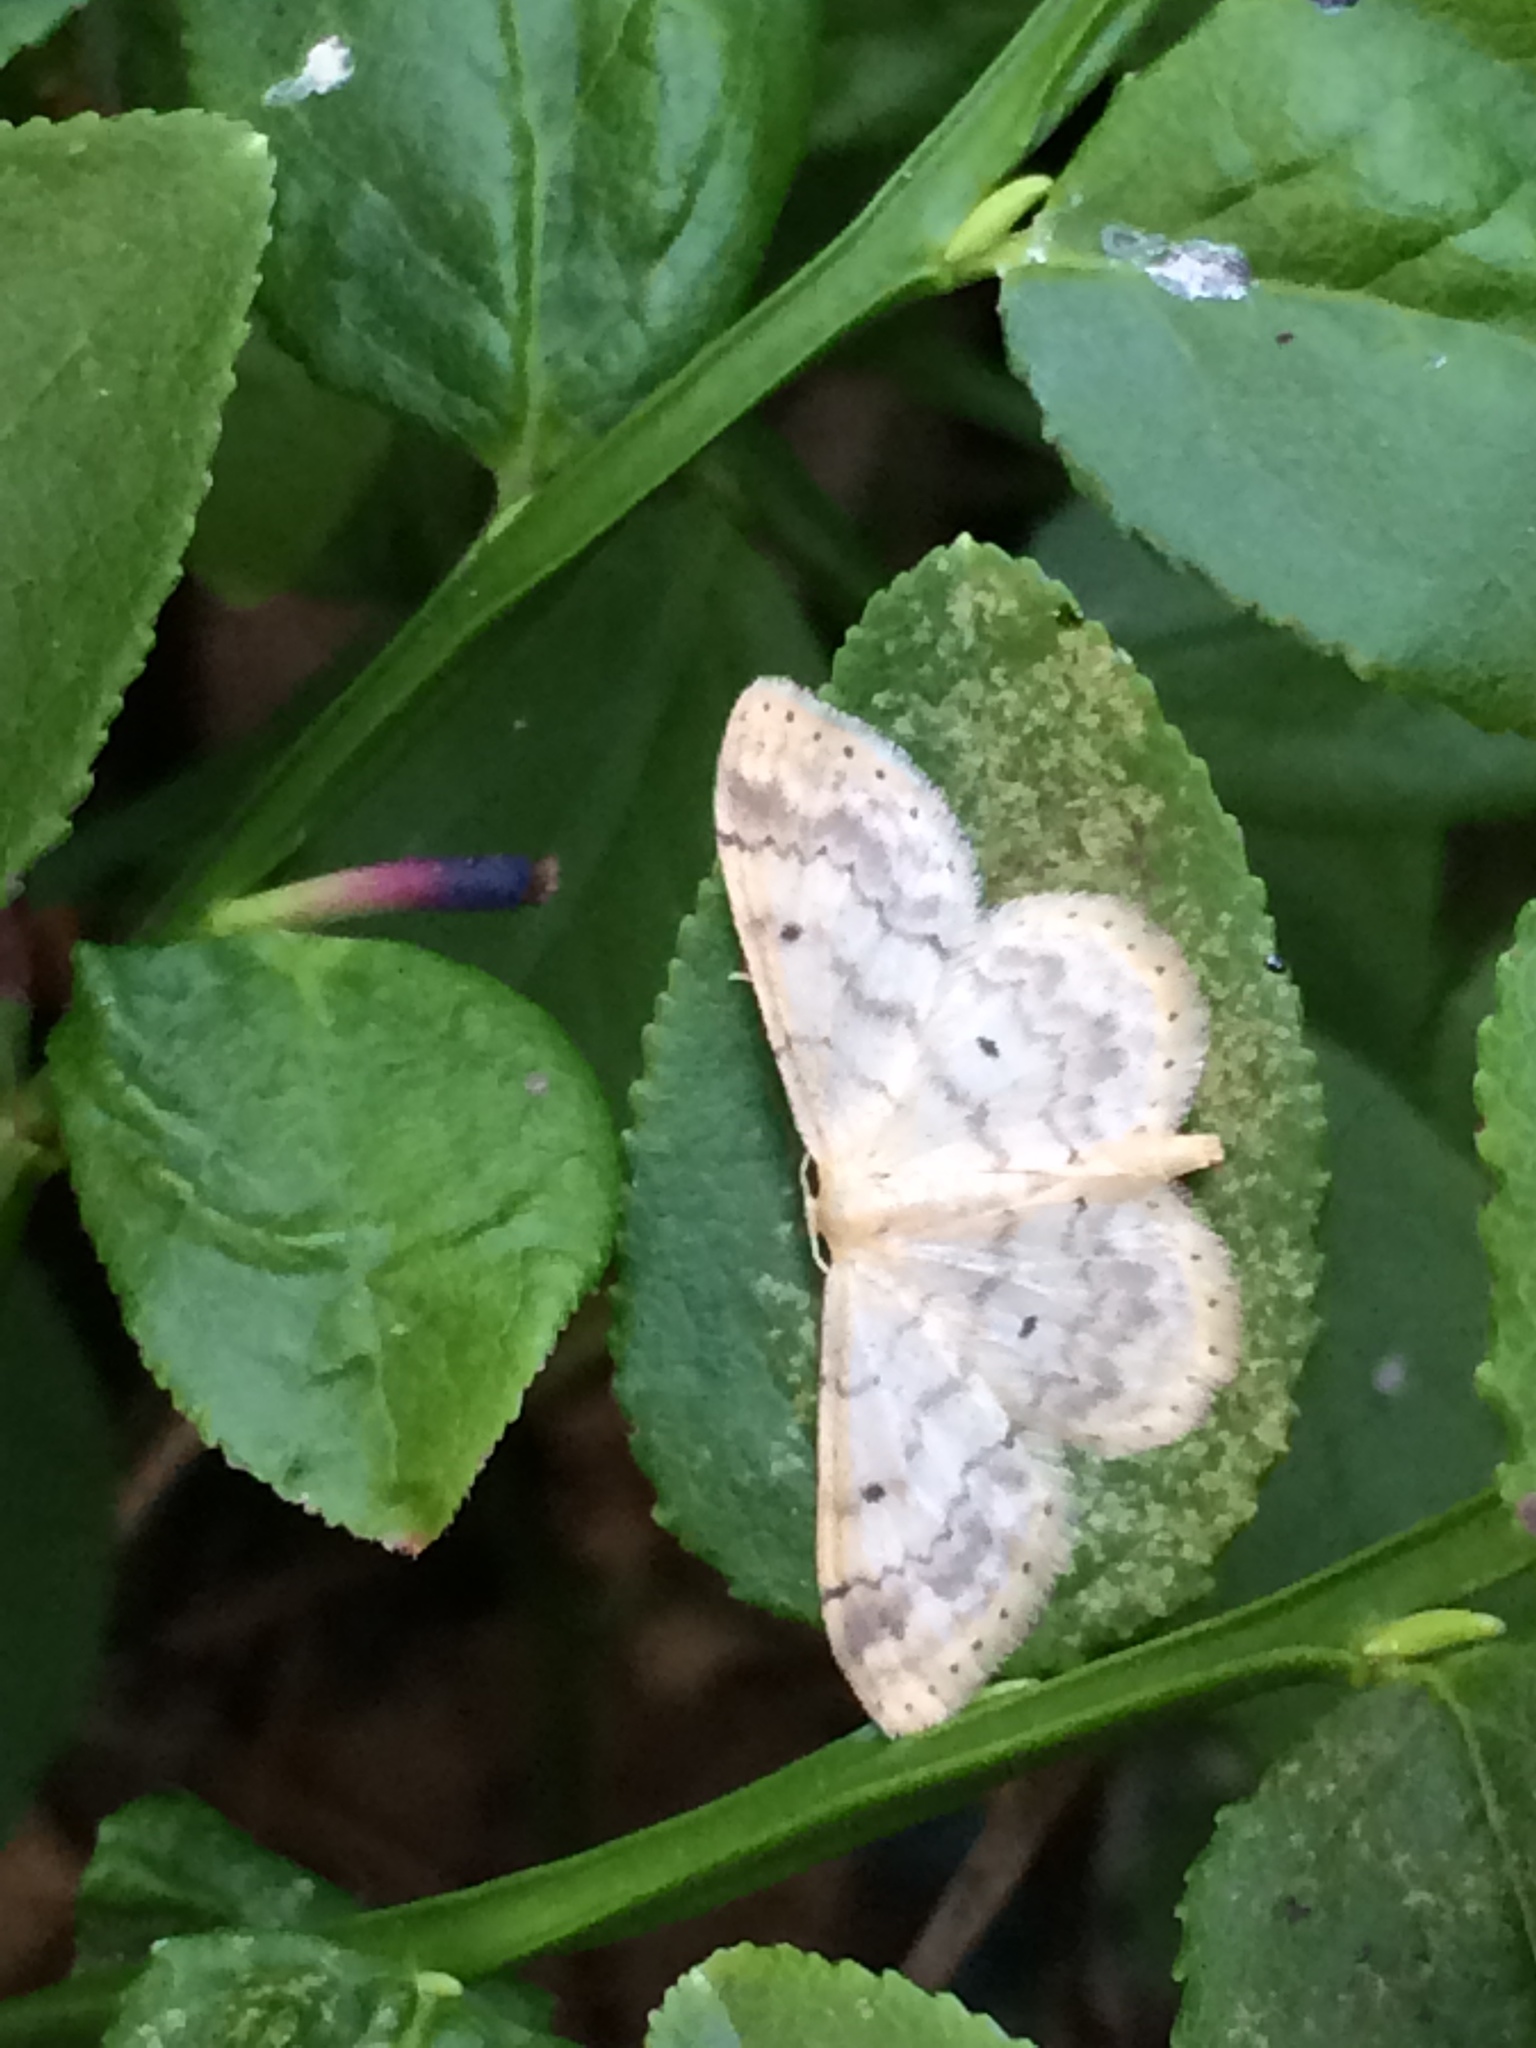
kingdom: Animalia
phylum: Arthropoda
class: Insecta
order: Lepidoptera
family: Geometridae
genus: Idaea
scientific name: Idaea biselata
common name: Small fan-footed wave
